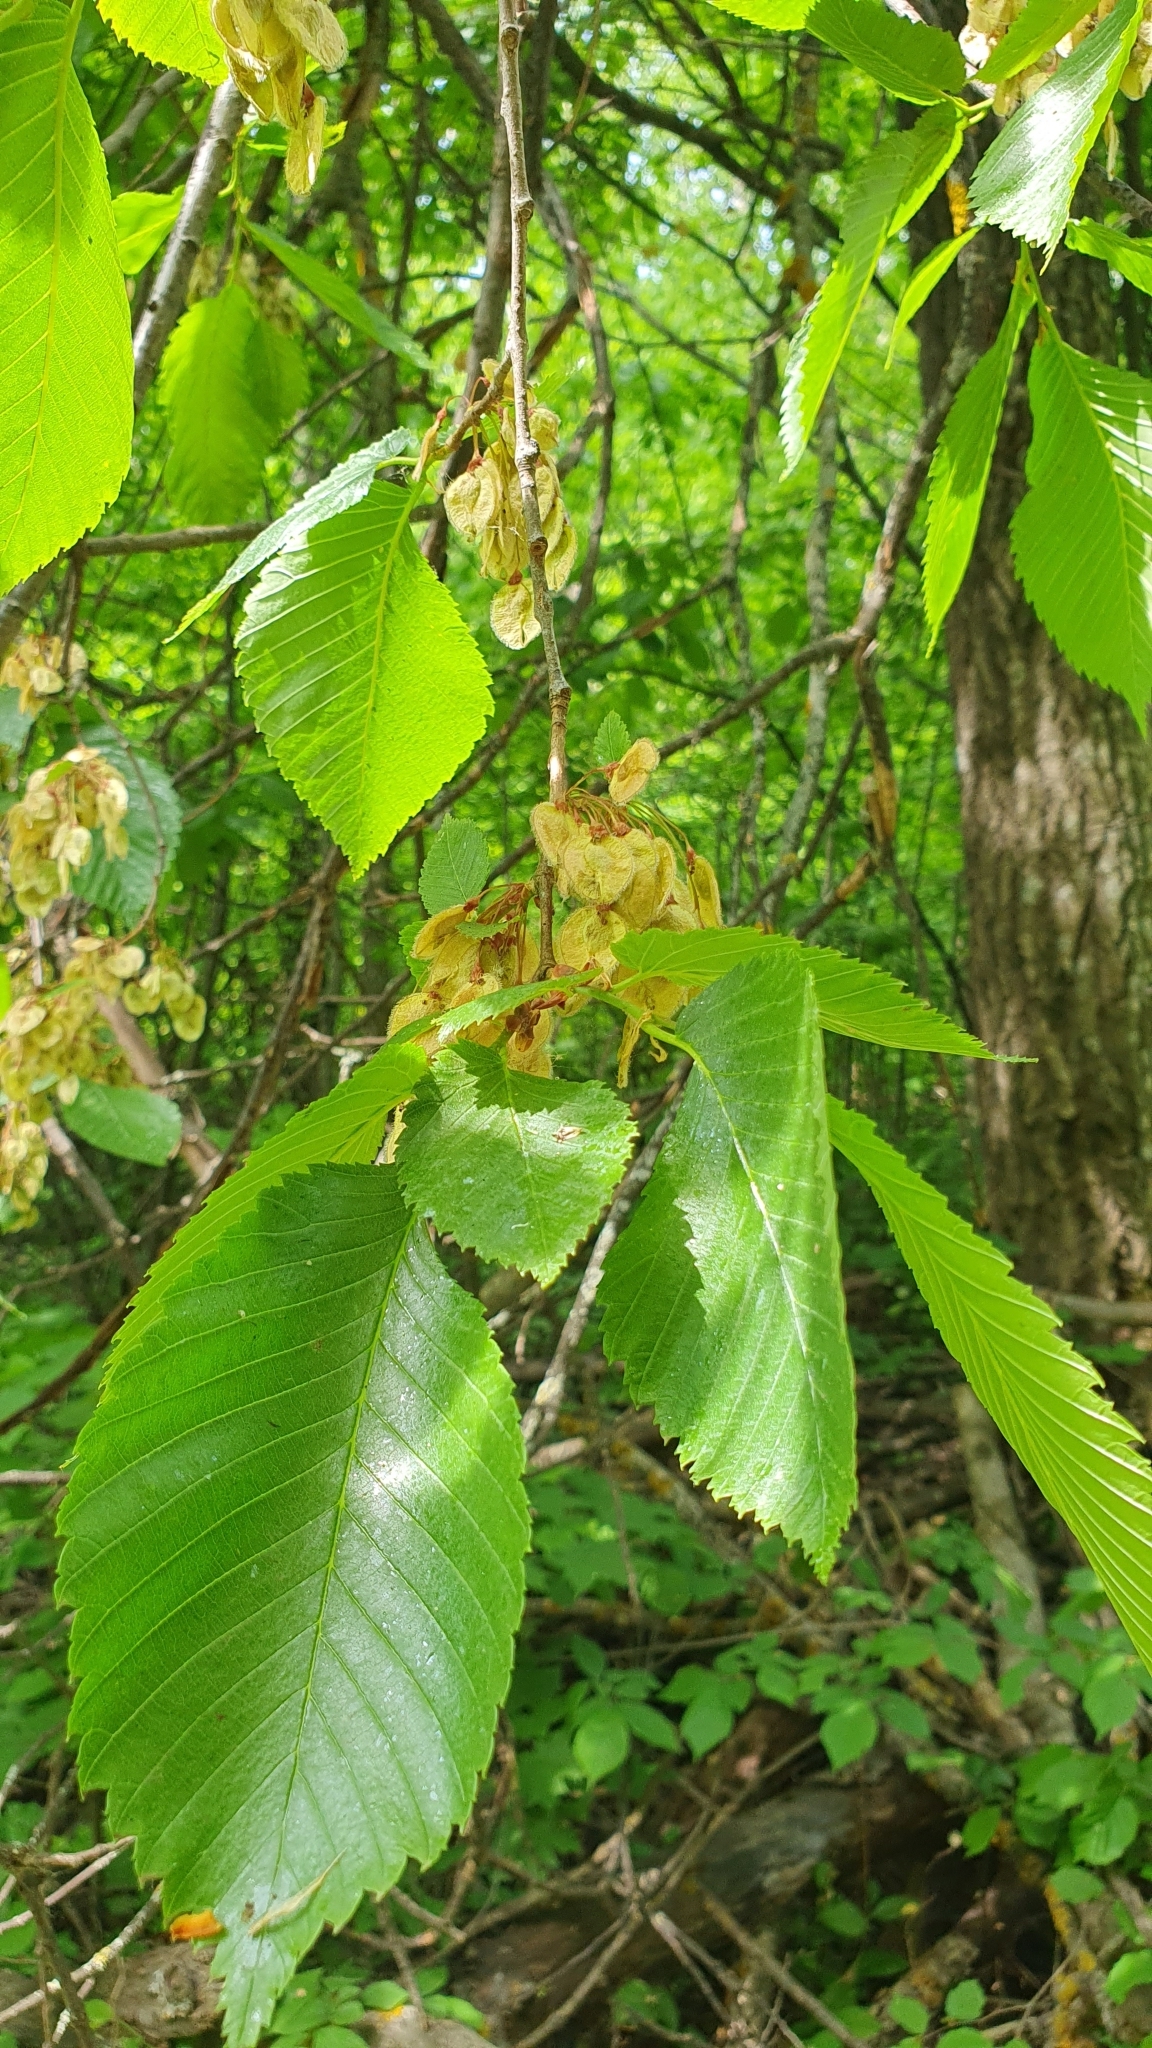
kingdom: Plantae
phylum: Tracheophyta
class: Magnoliopsida
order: Rosales
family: Ulmaceae
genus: Ulmus
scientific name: Ulmus laevis
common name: European white-elm
